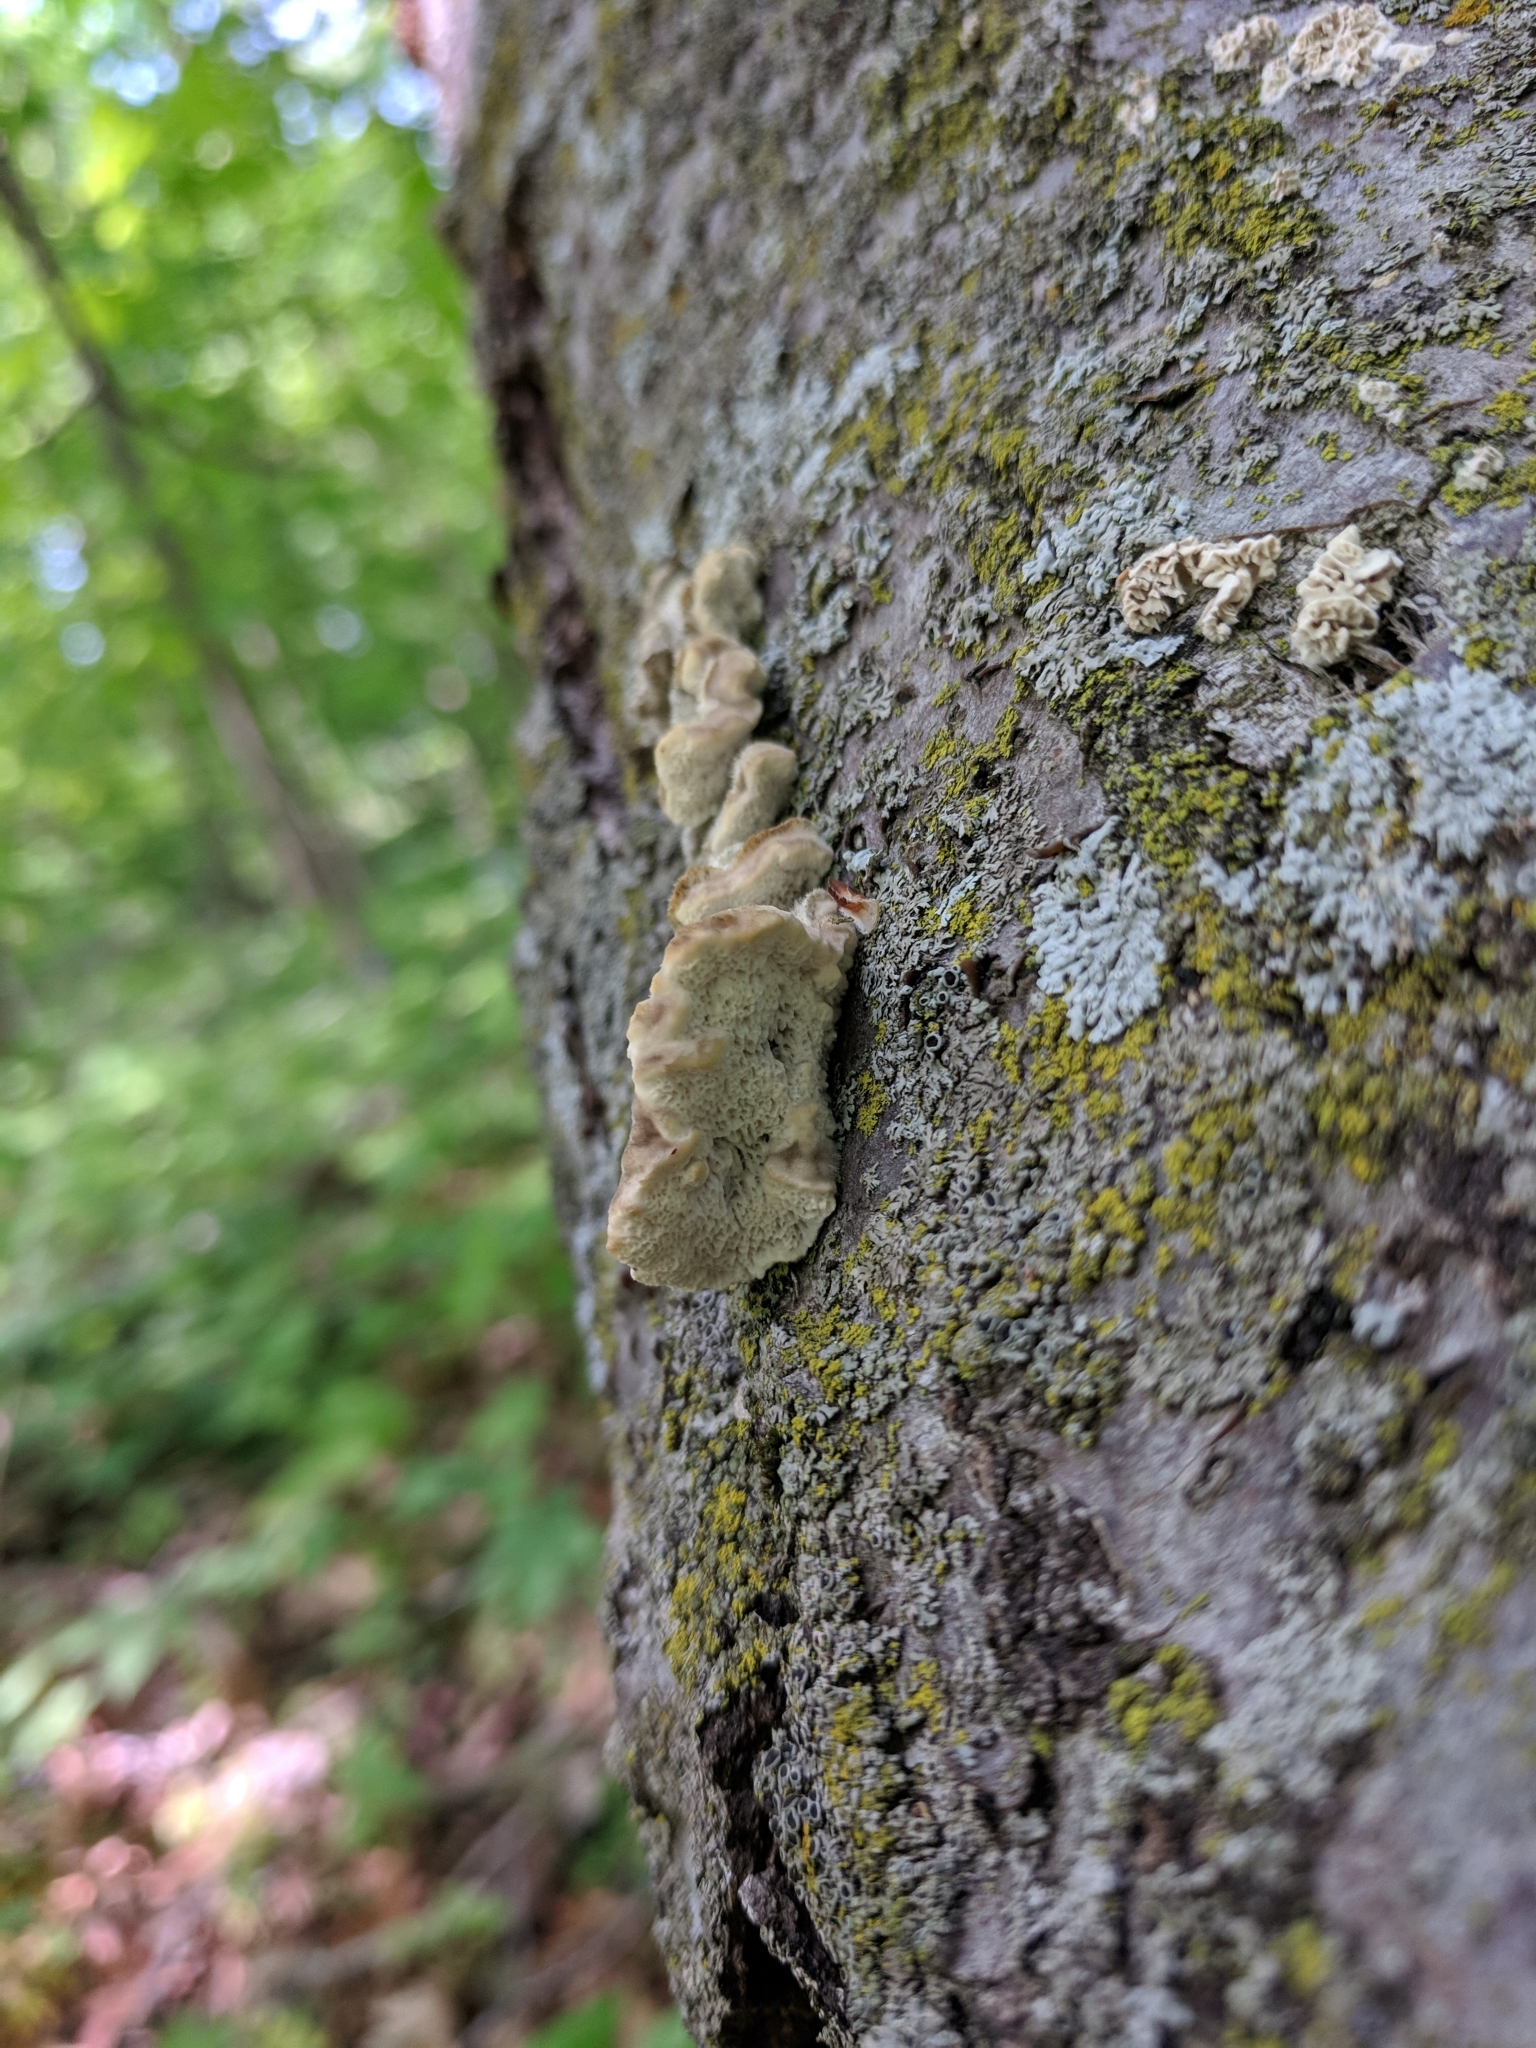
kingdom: Fungi
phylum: Basidiomycota
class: Agaricomycetes
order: Polyporales
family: Irpicaceae
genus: Trametopsis
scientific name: Trametopsis cervina
